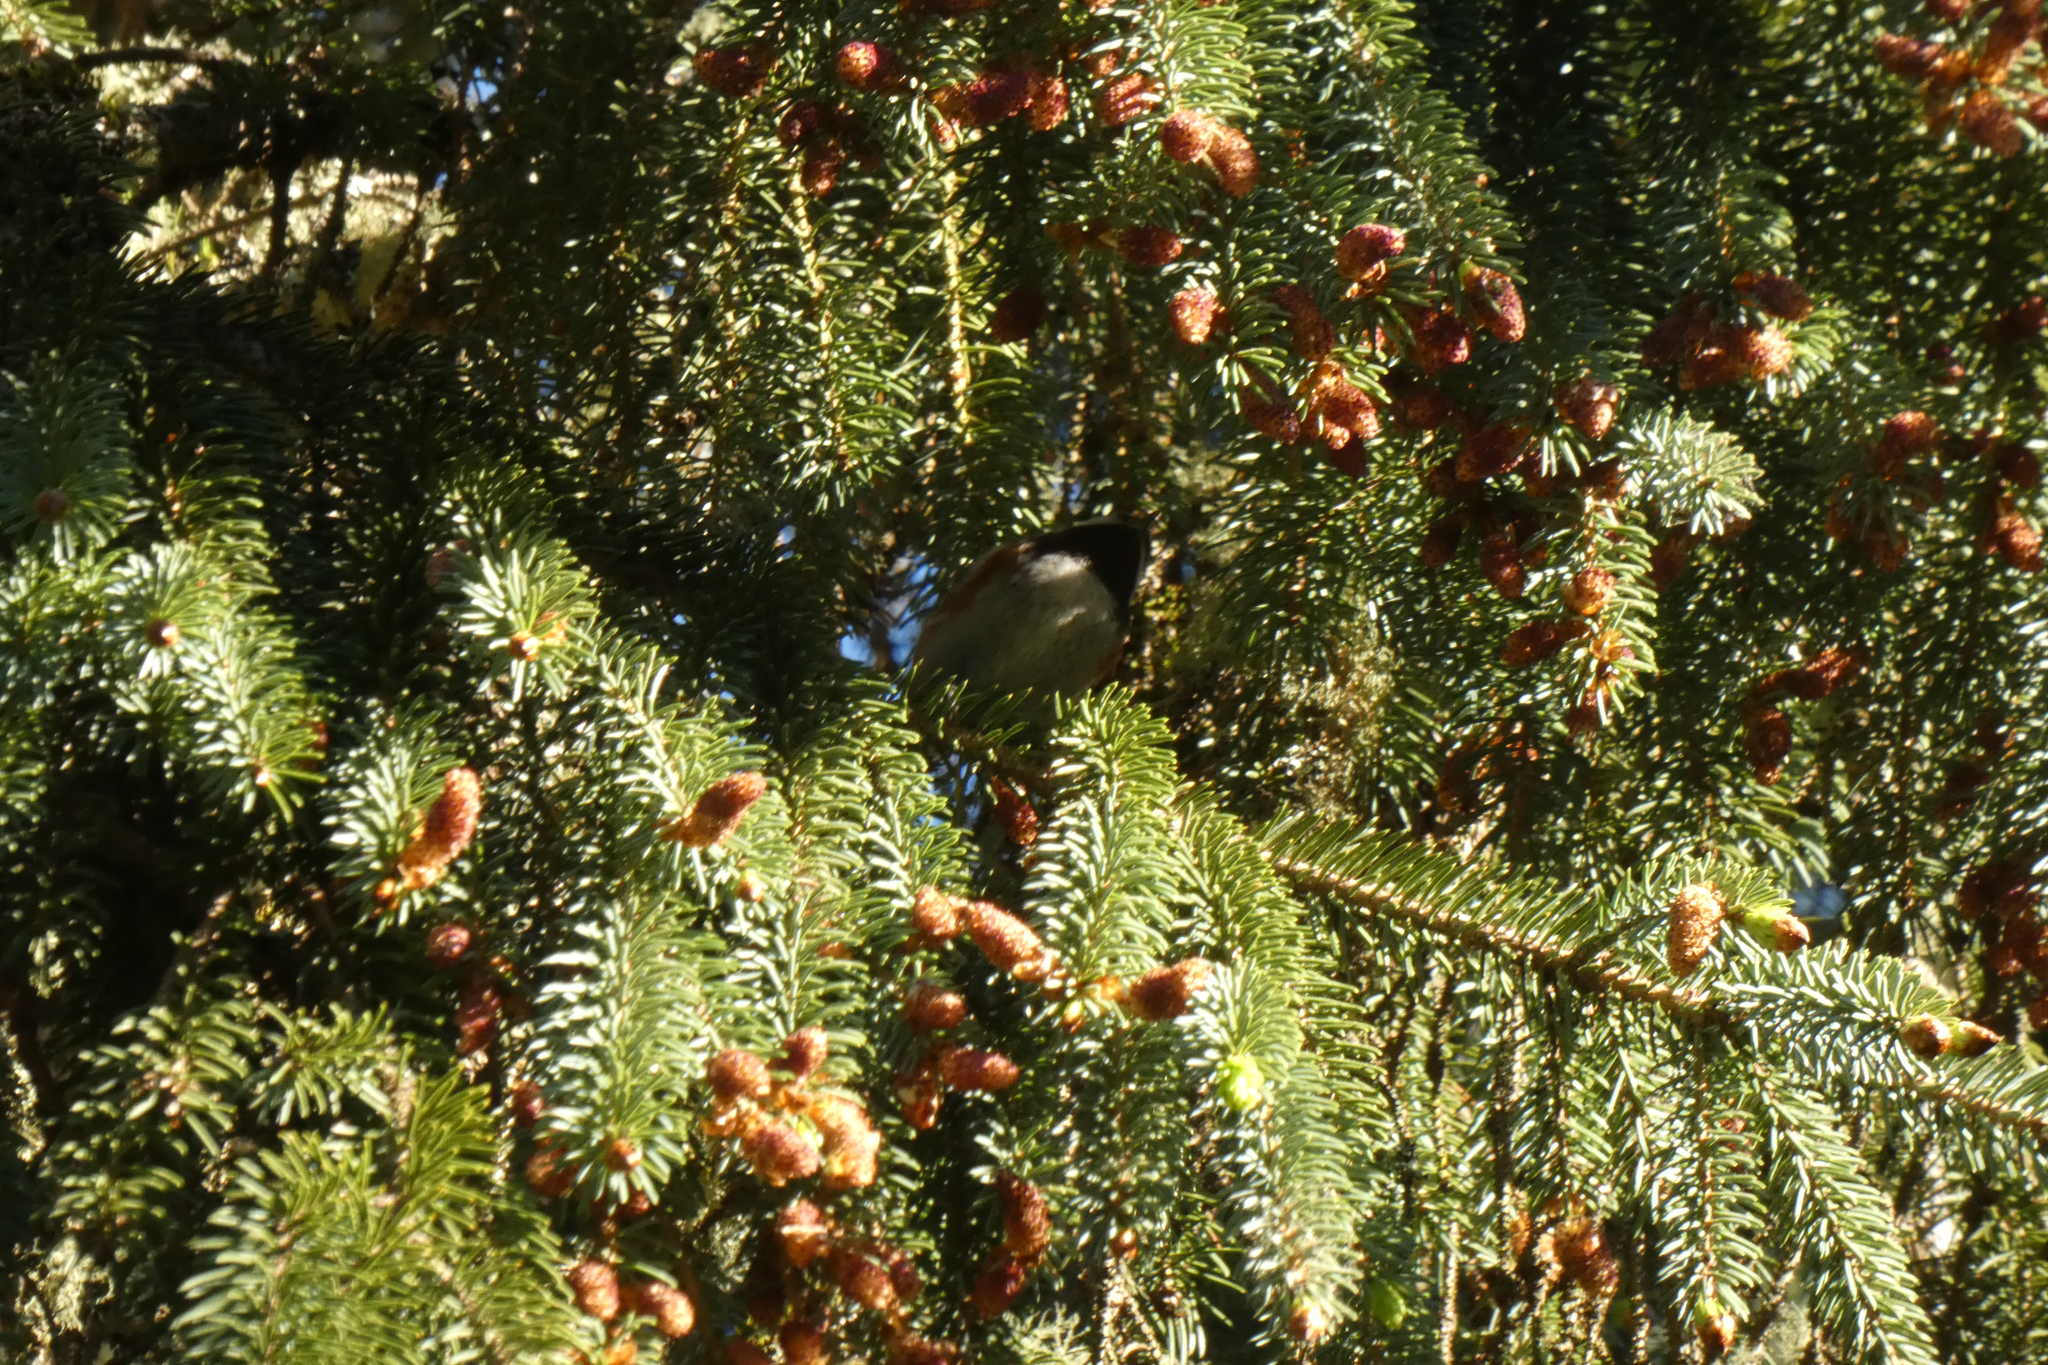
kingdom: Animalia
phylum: Chordata
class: Aves
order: Passeriformes
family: Paridae
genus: Poecile
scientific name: Poecile rufescens
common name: Chestnut-backed chickadee
